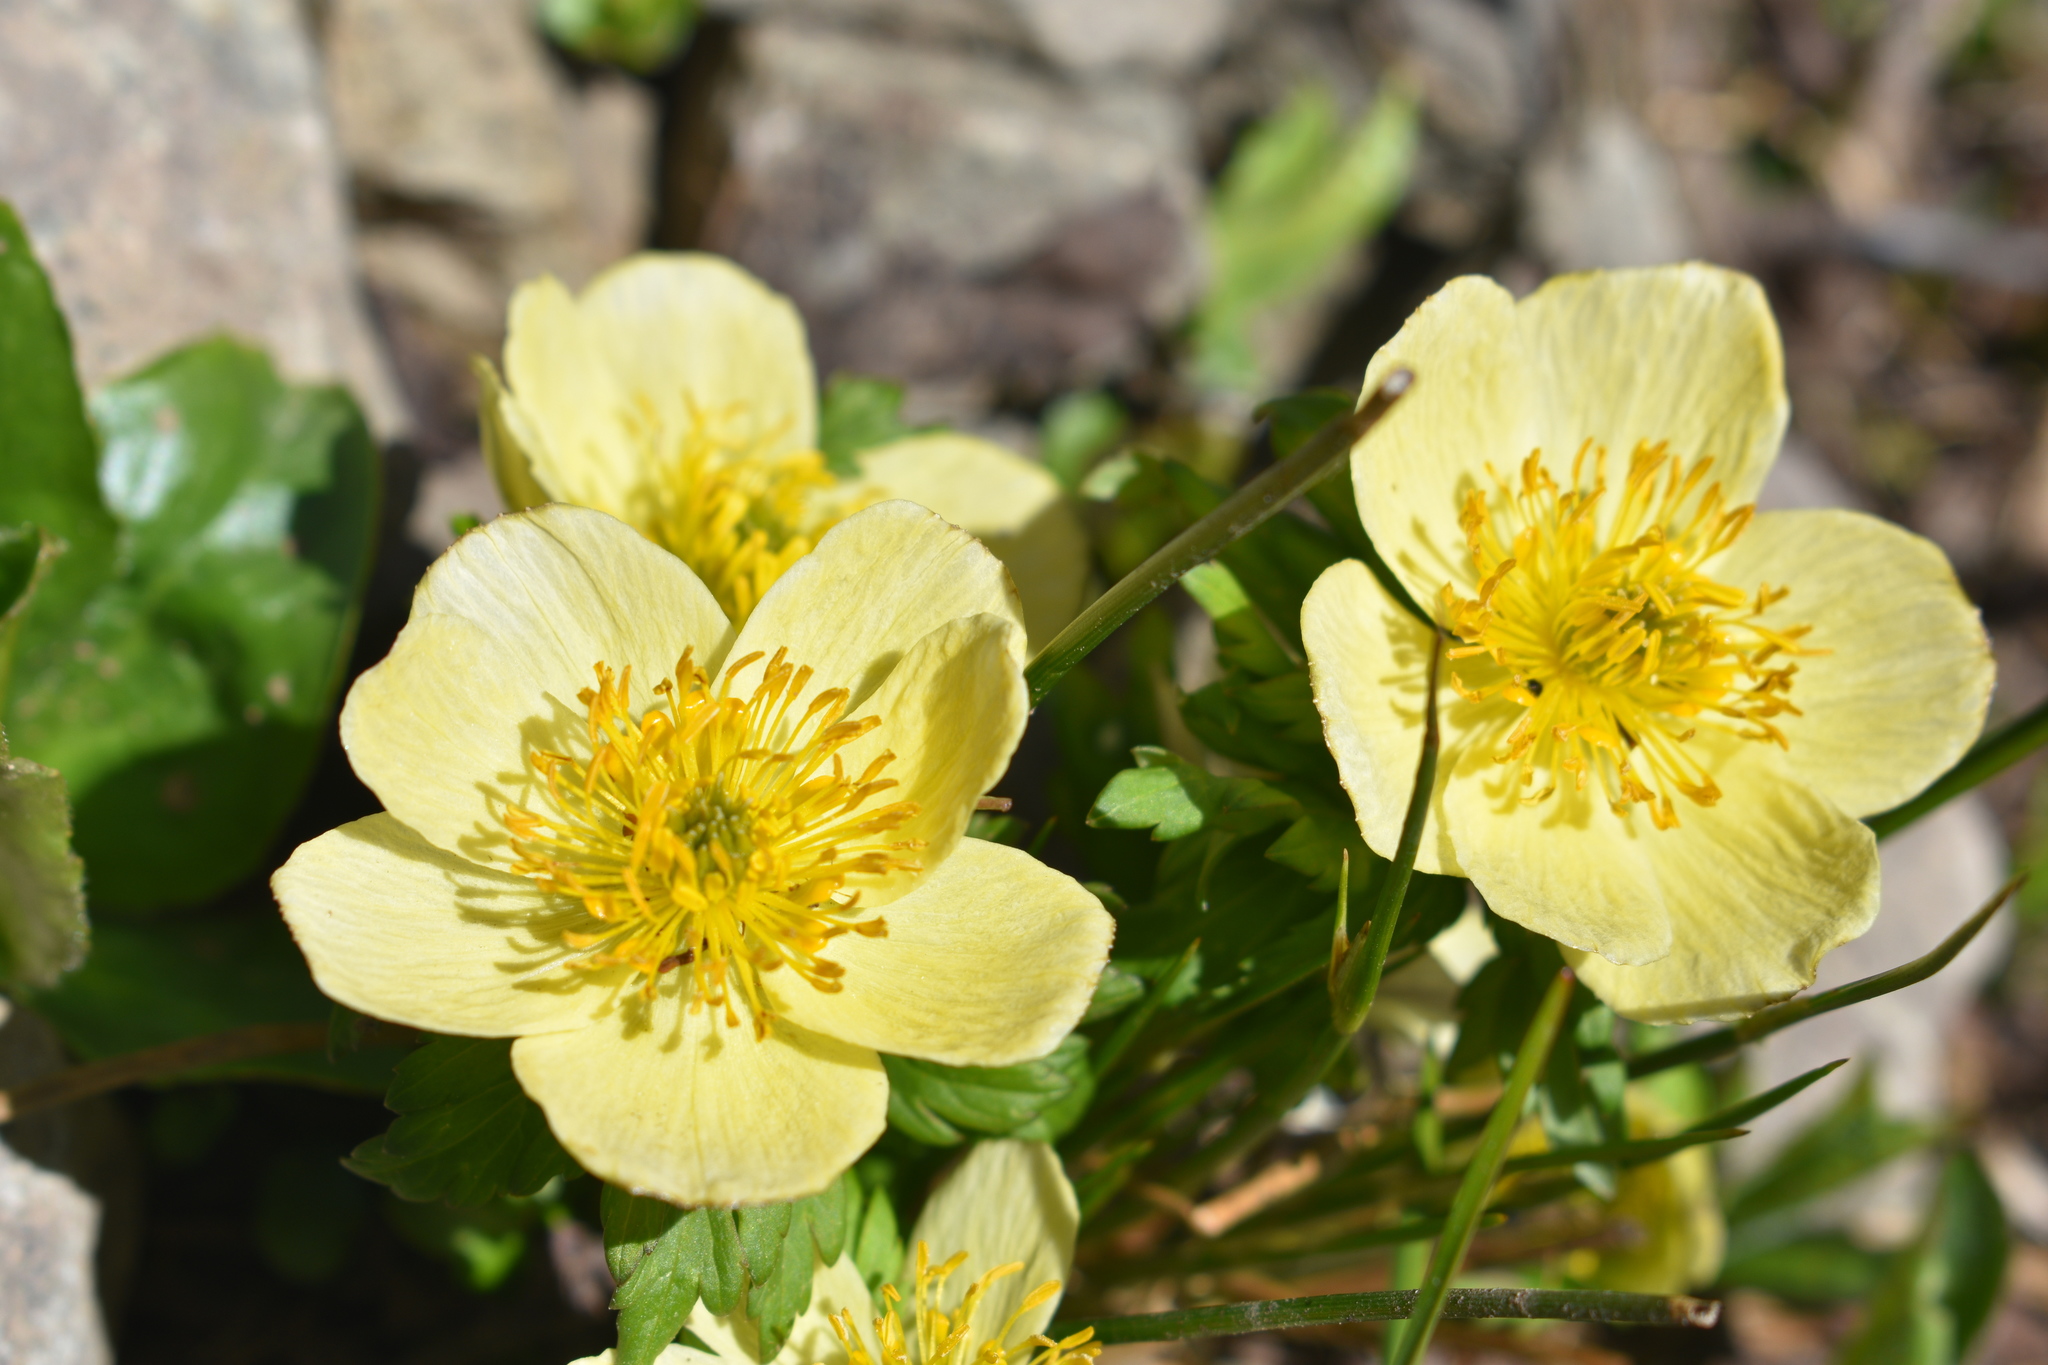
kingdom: Plantae
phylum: Tracheophyta
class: Magnoliopsida
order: Ranunculales
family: Ranunculaceae
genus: Trollius
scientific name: Trollius laxus
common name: American globeflower
